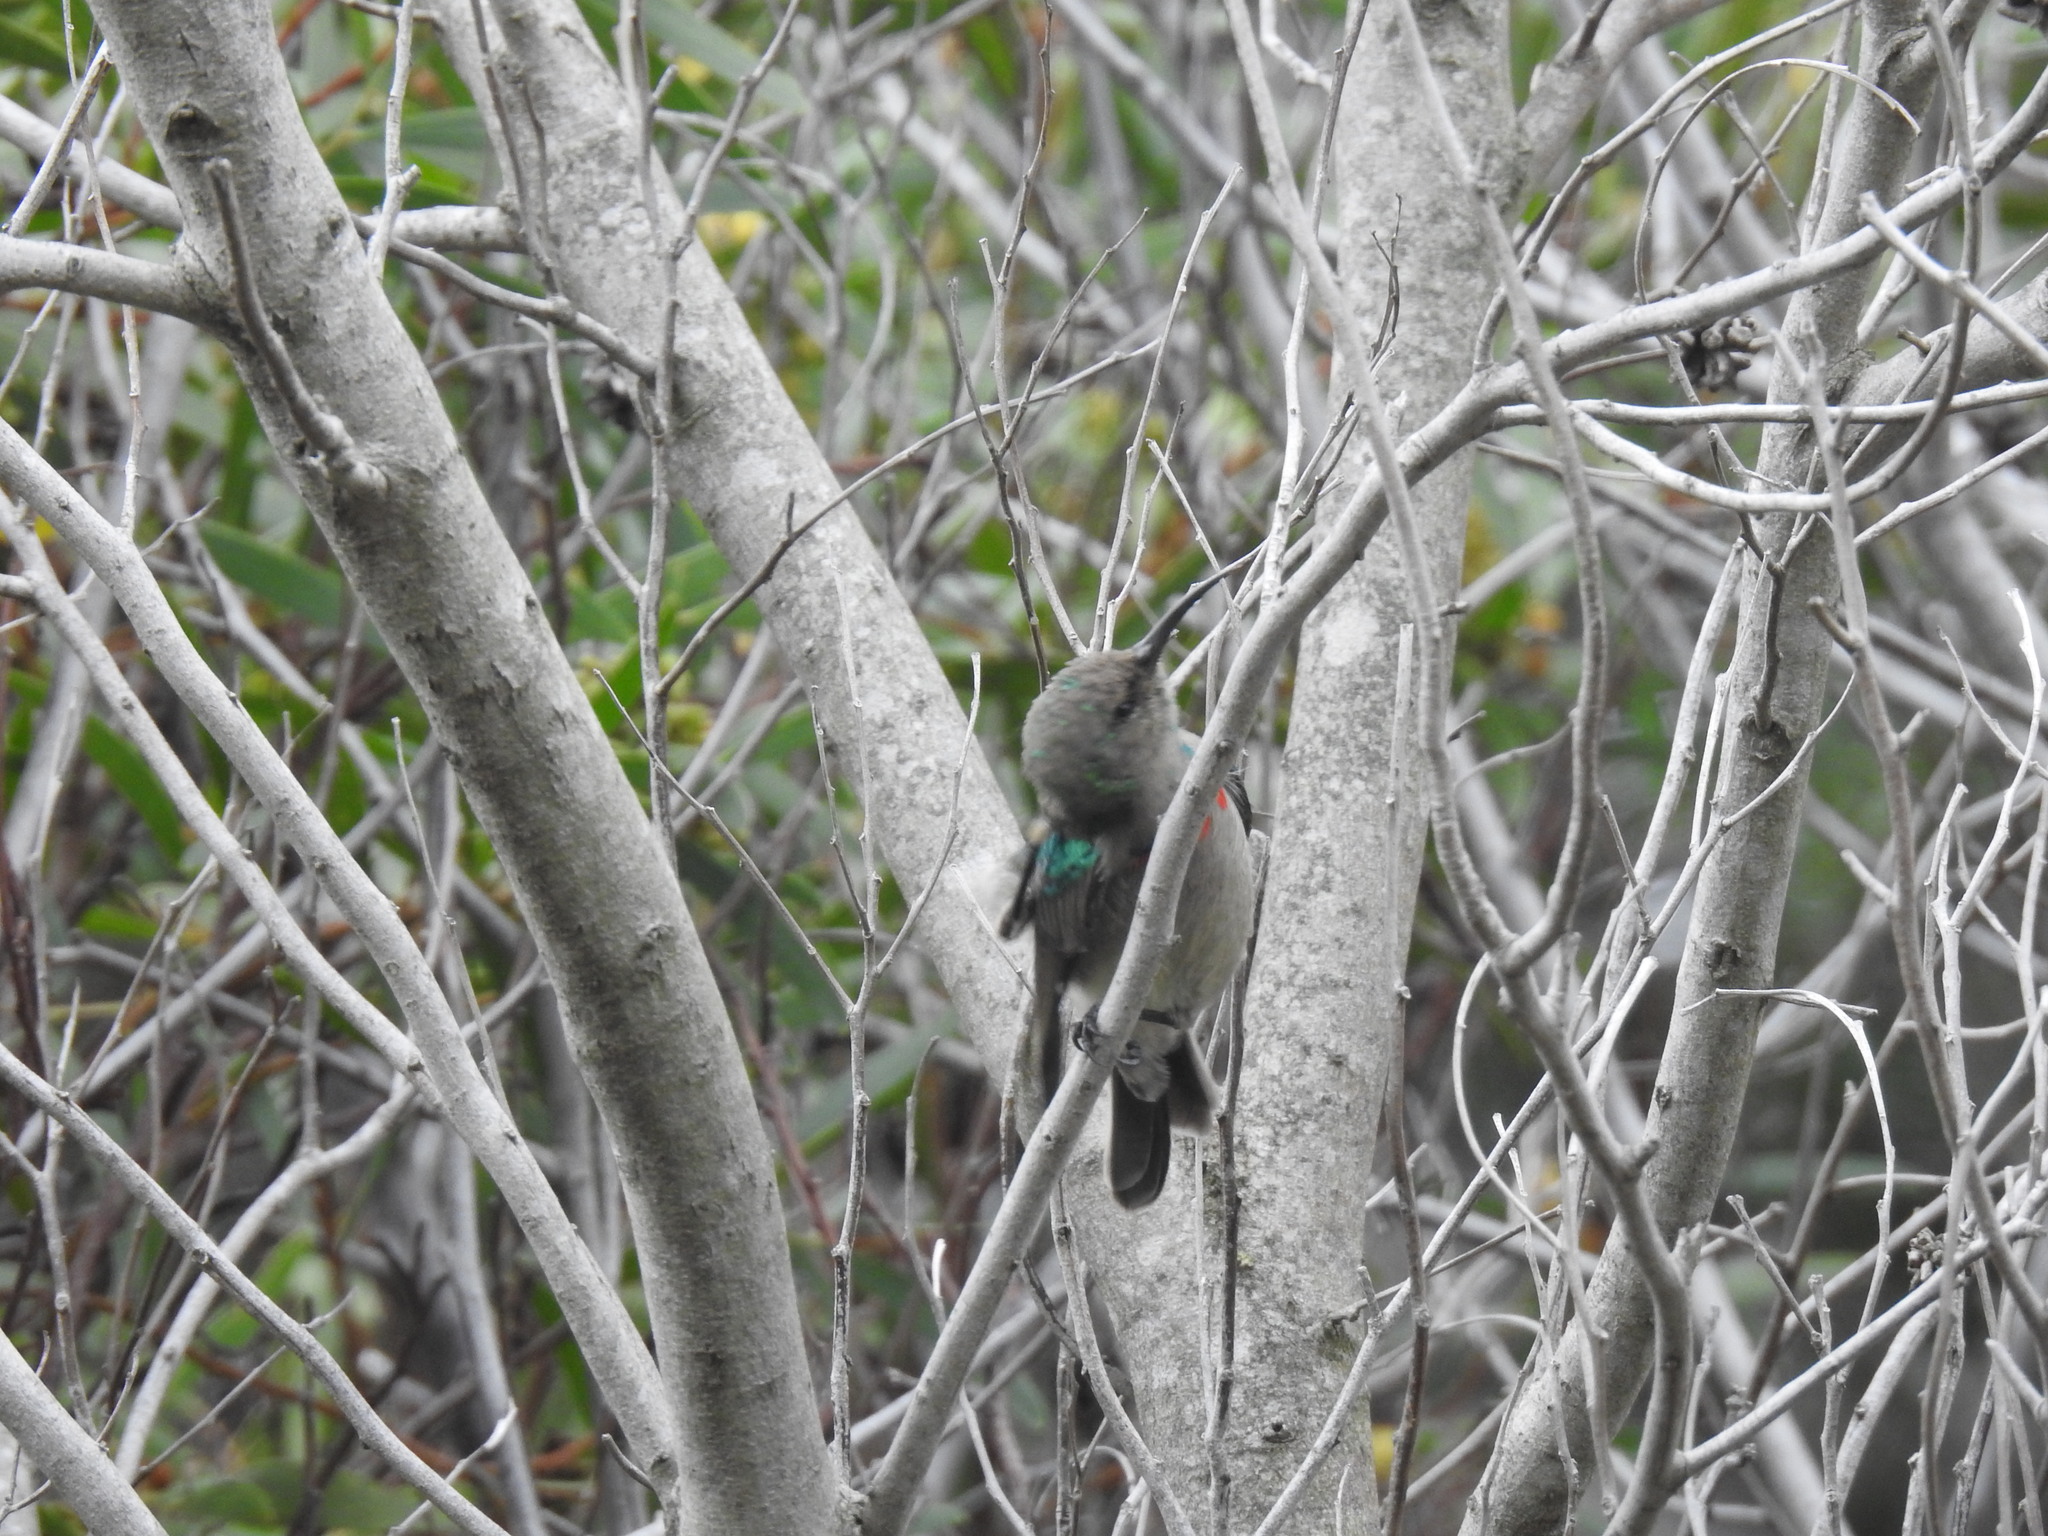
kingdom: Animalia
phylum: Chordata
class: Aves
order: Passeriformes
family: Nectariniidae
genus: Cinnyris
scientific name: Cinnyris chalybeus
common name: Southern double-collared sunbird
